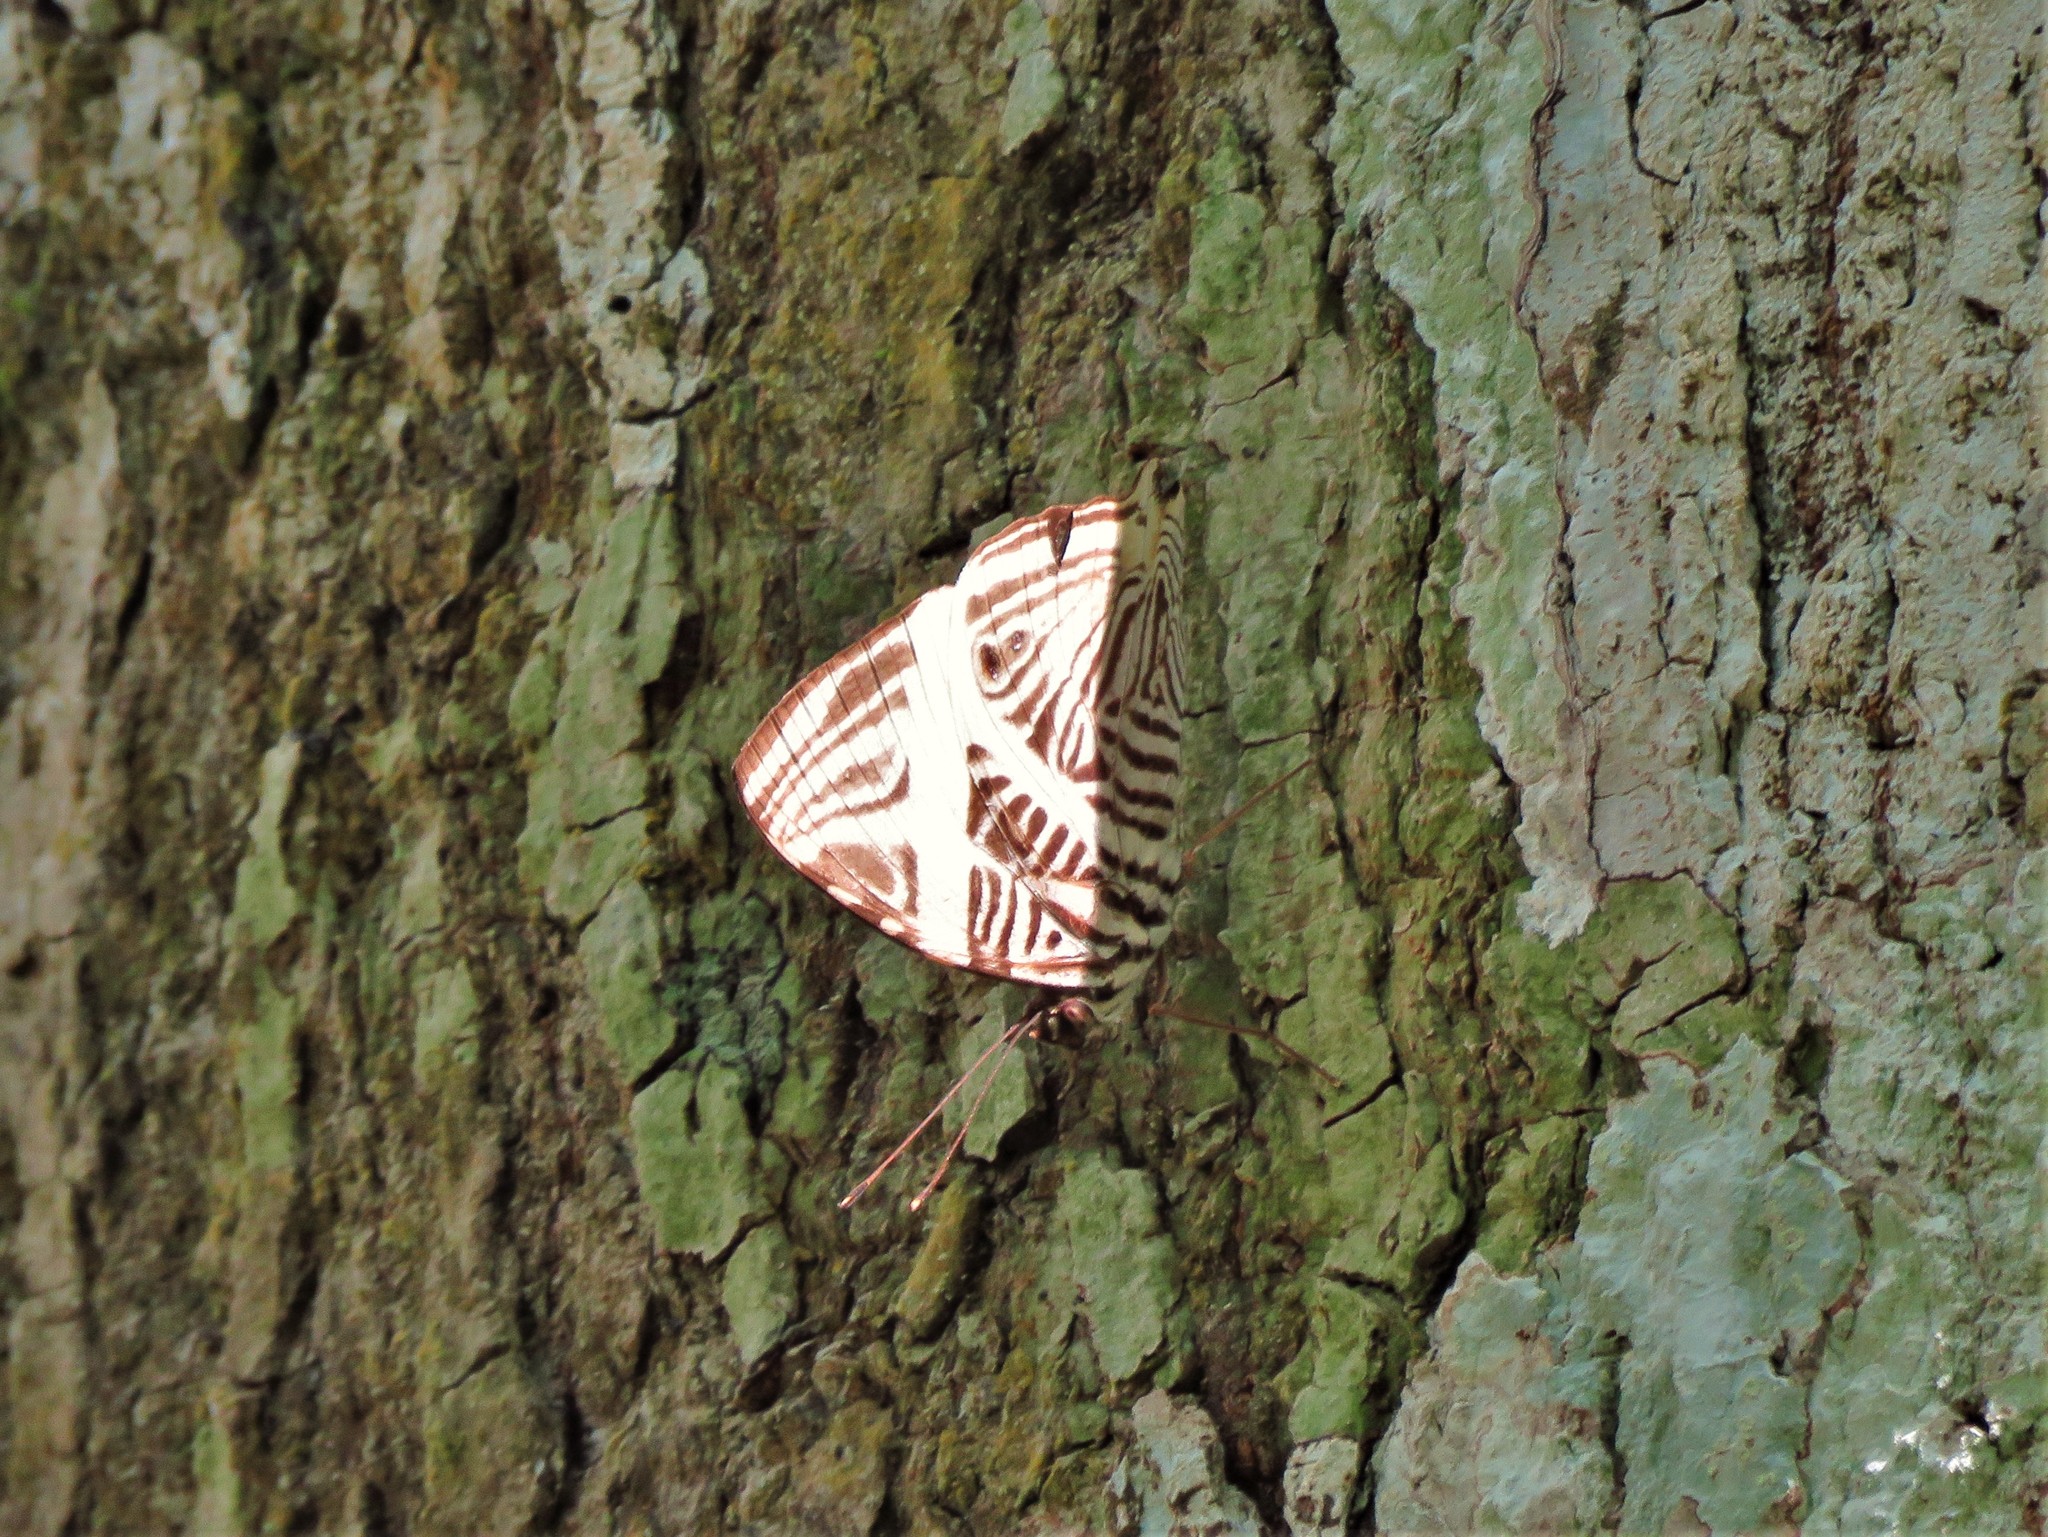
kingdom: Animalia
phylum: Arthropoda
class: Insecta
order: Lepidoptera
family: Nymphalidae
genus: Colobura
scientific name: Colobura dirce
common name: Dirce beauty
